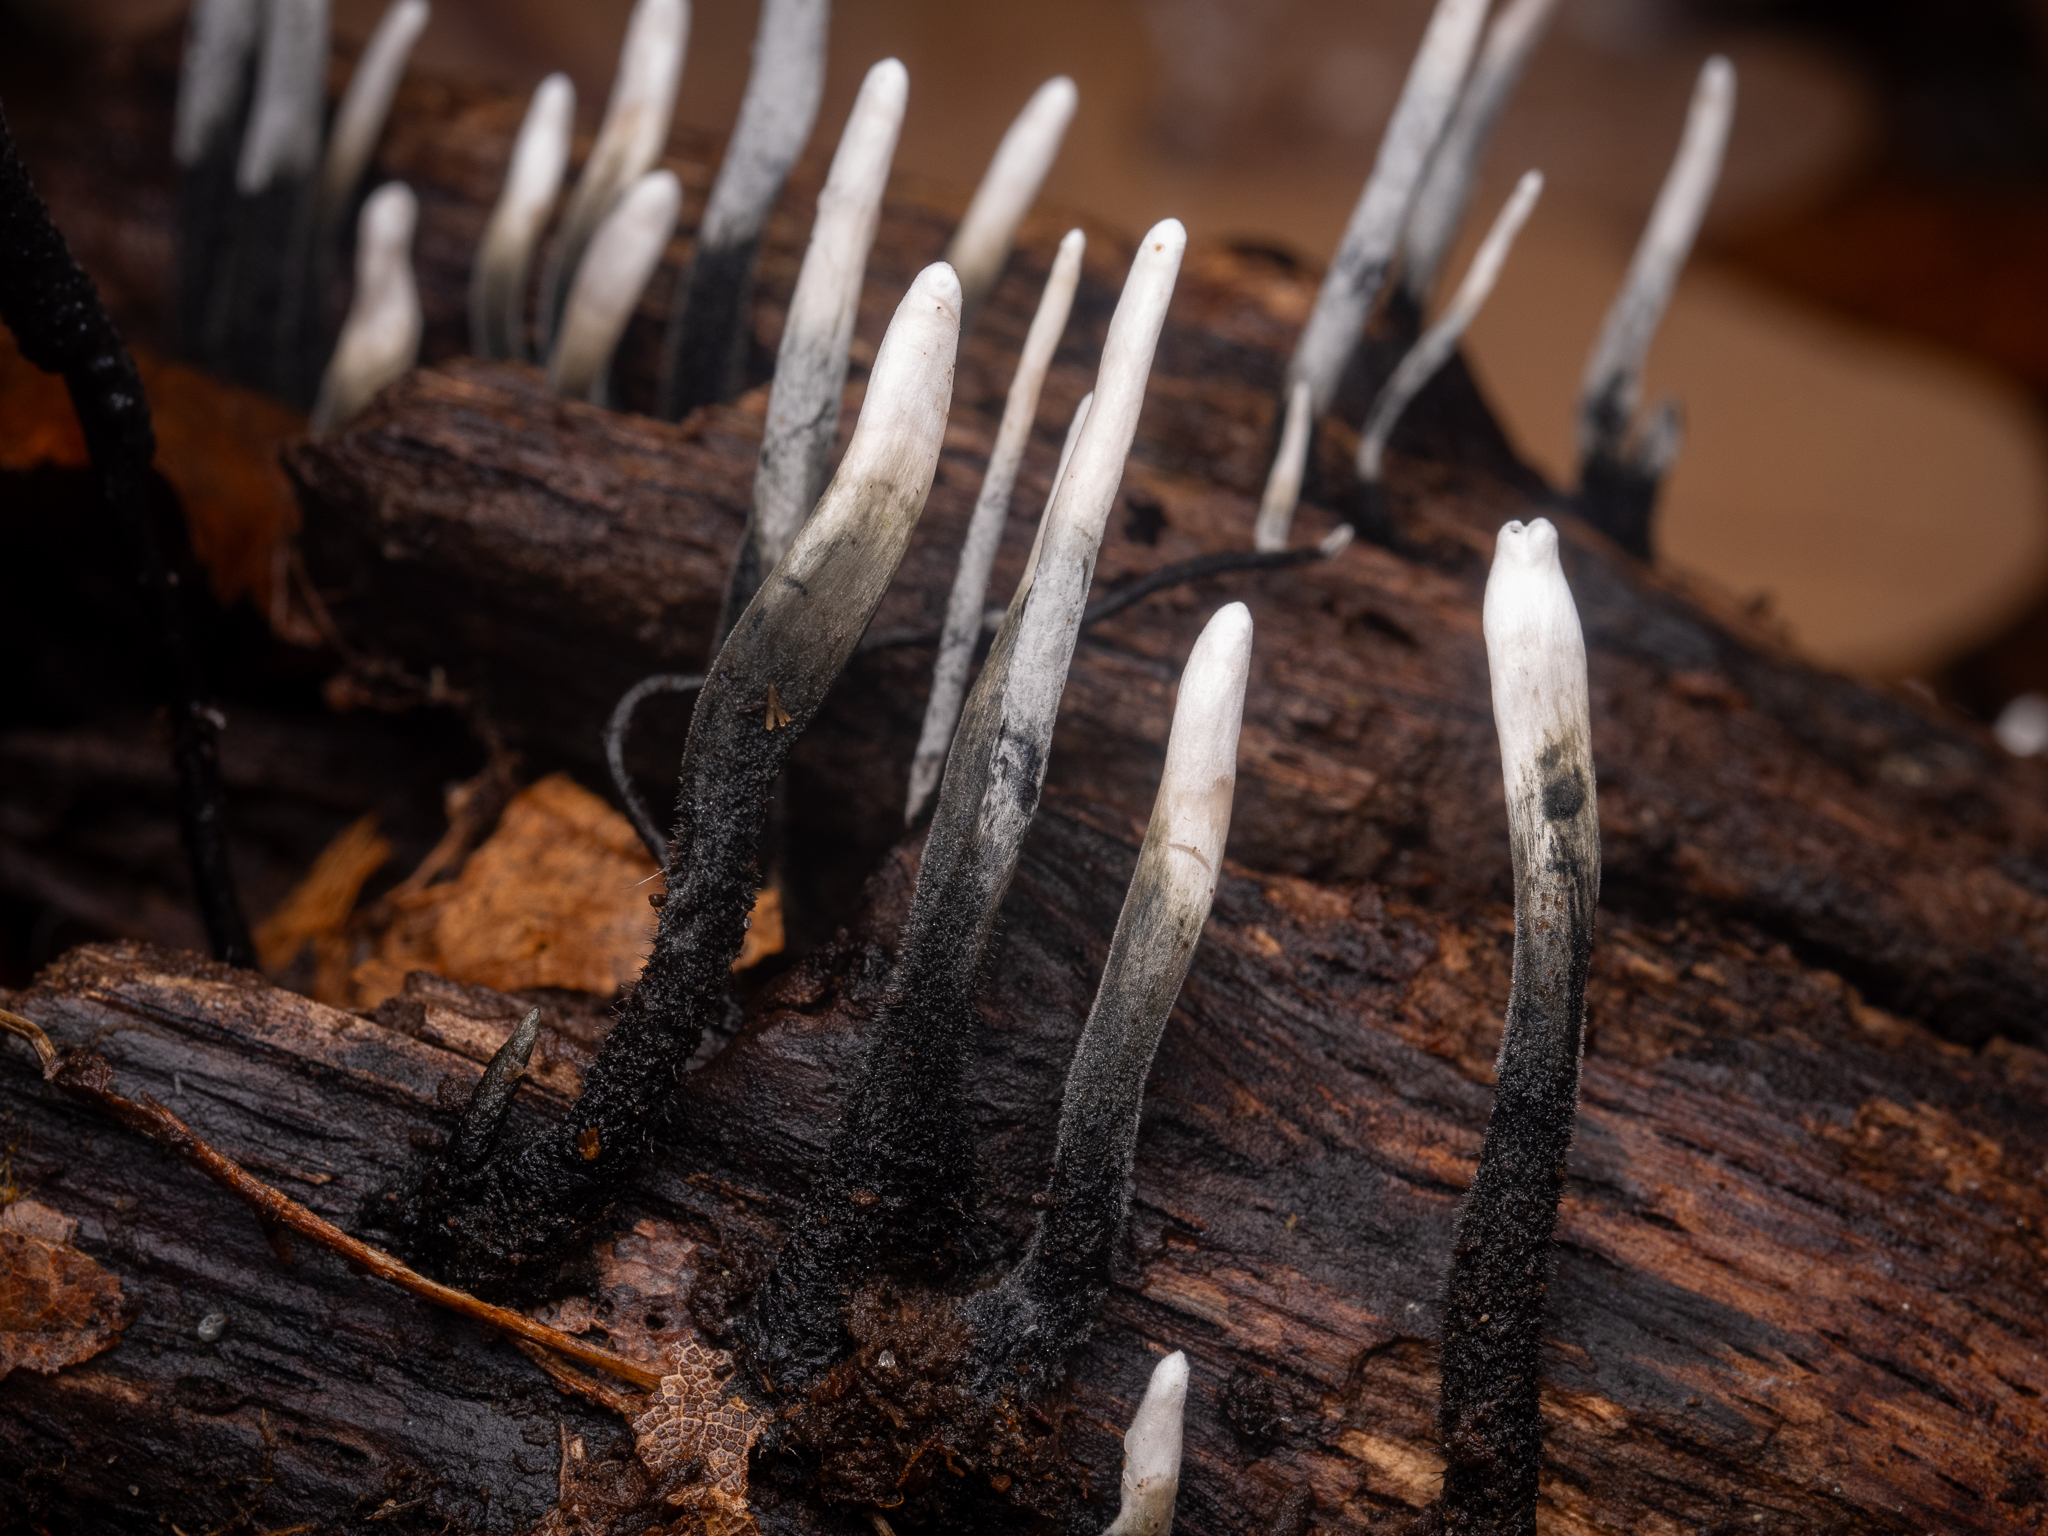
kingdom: Fungi
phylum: Ascomycota
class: Sordariomycetes
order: Xylariales
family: Xylariaceae
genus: Xylaria
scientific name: Xylaria hypoxylon
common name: Candle-snuff fungus
